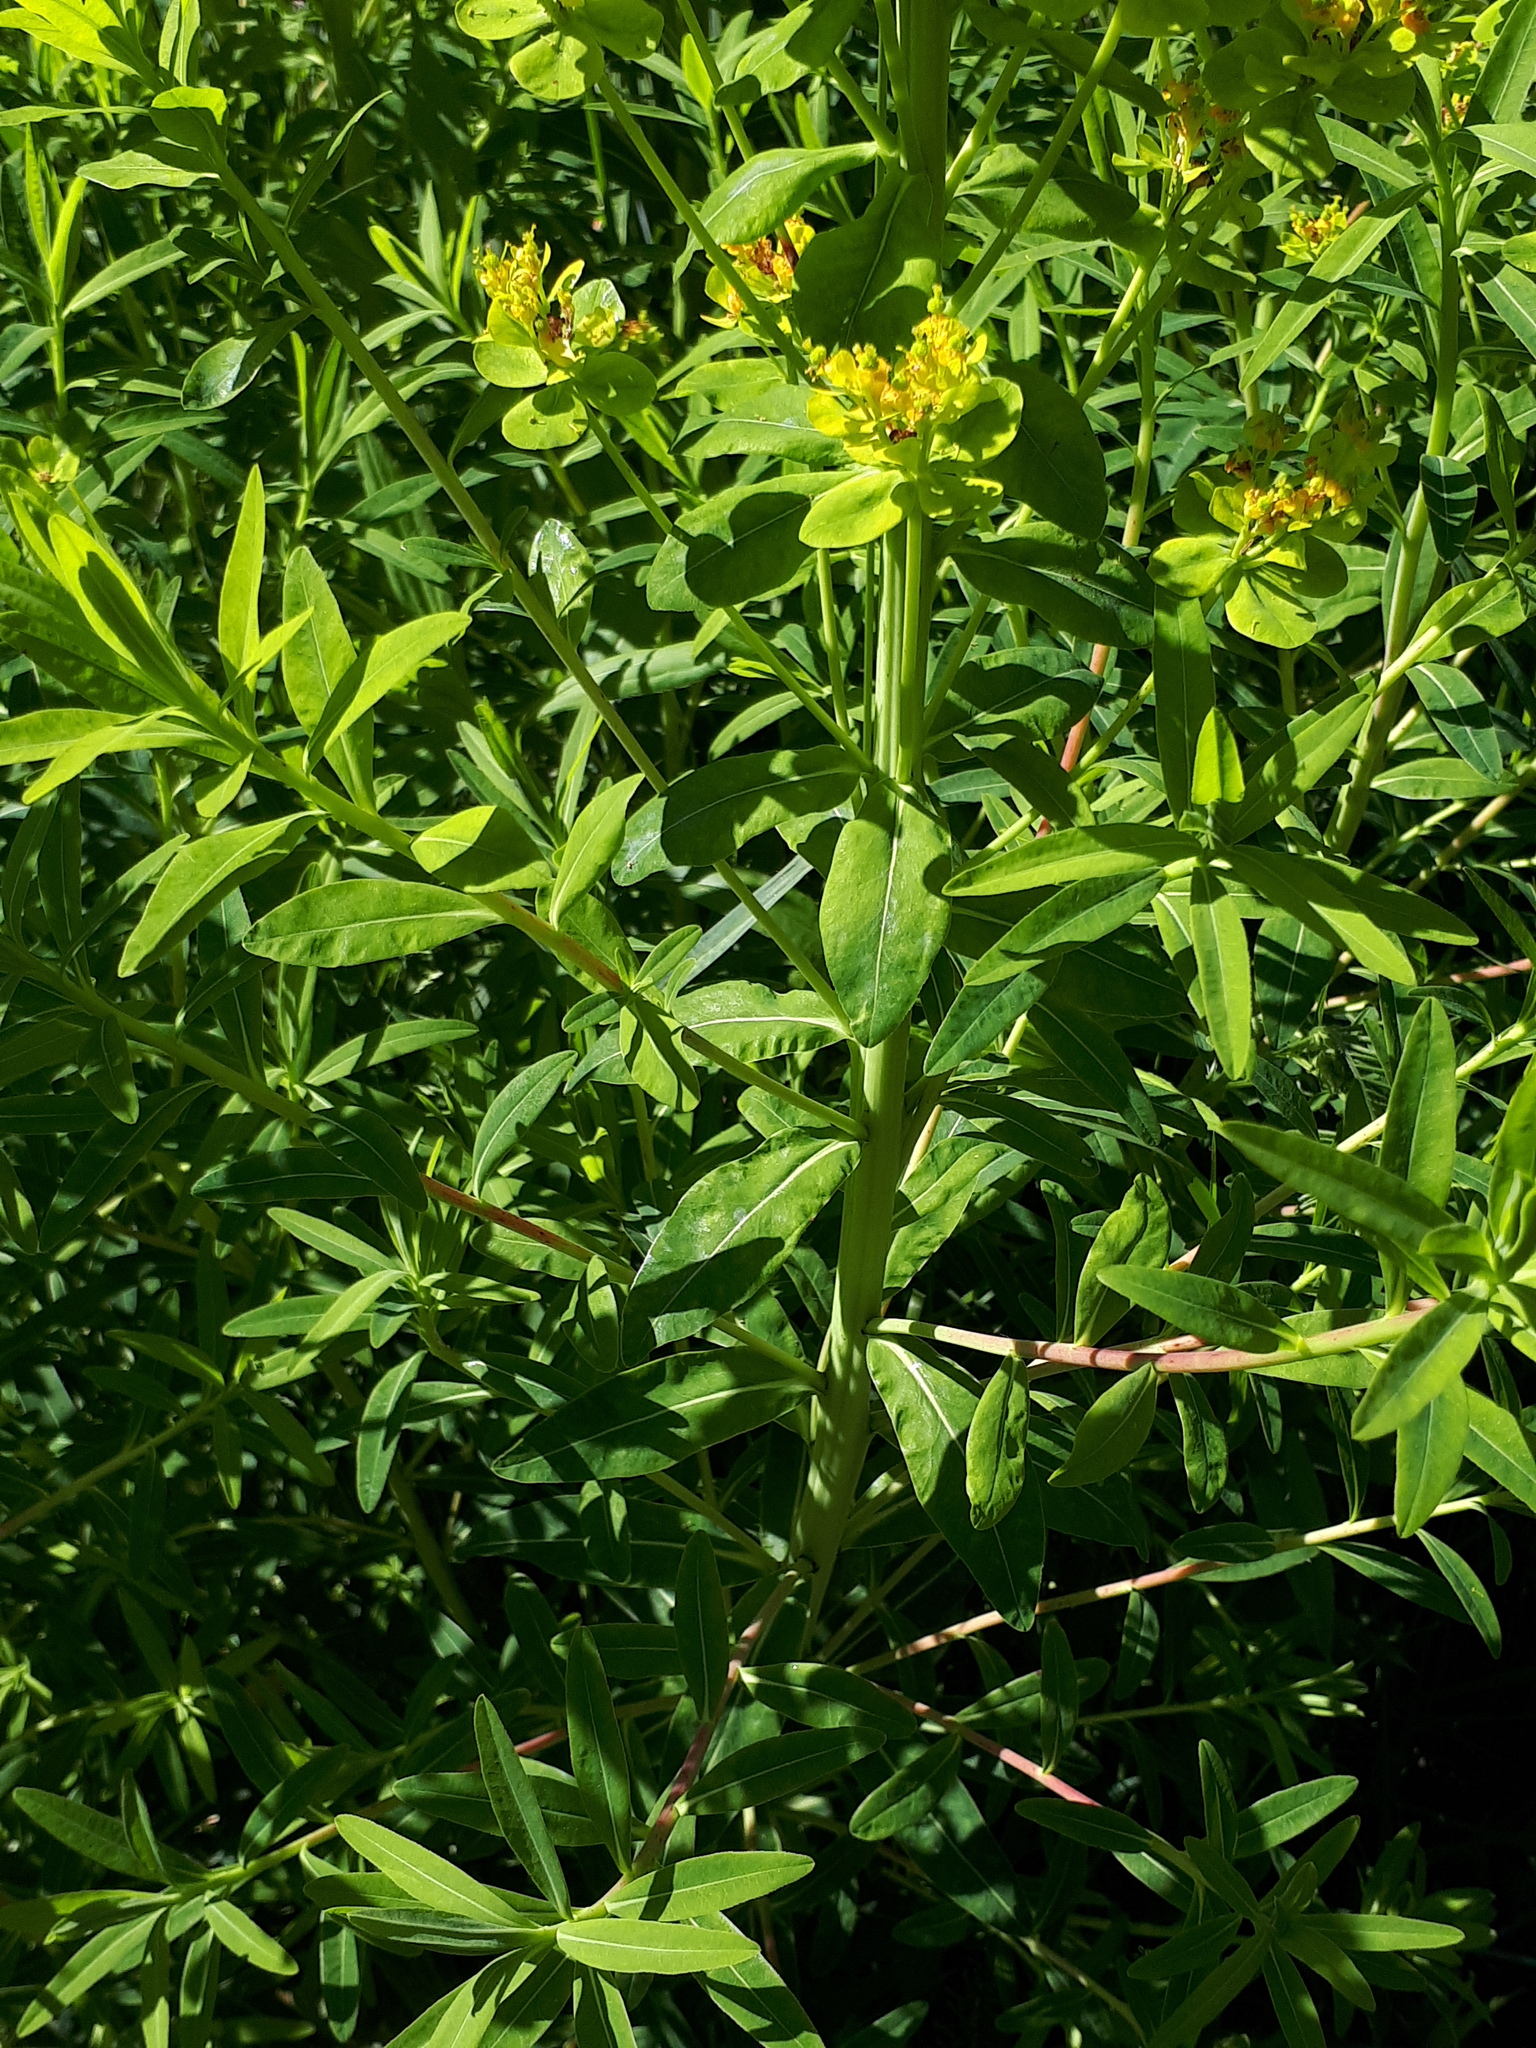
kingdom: Plantae
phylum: Tracheophyta
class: Magnoliopsida
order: Malpighiales
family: Euphorbiaceae
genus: Euphorbia
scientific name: Euphorbia palustris
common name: Marsh spurge
